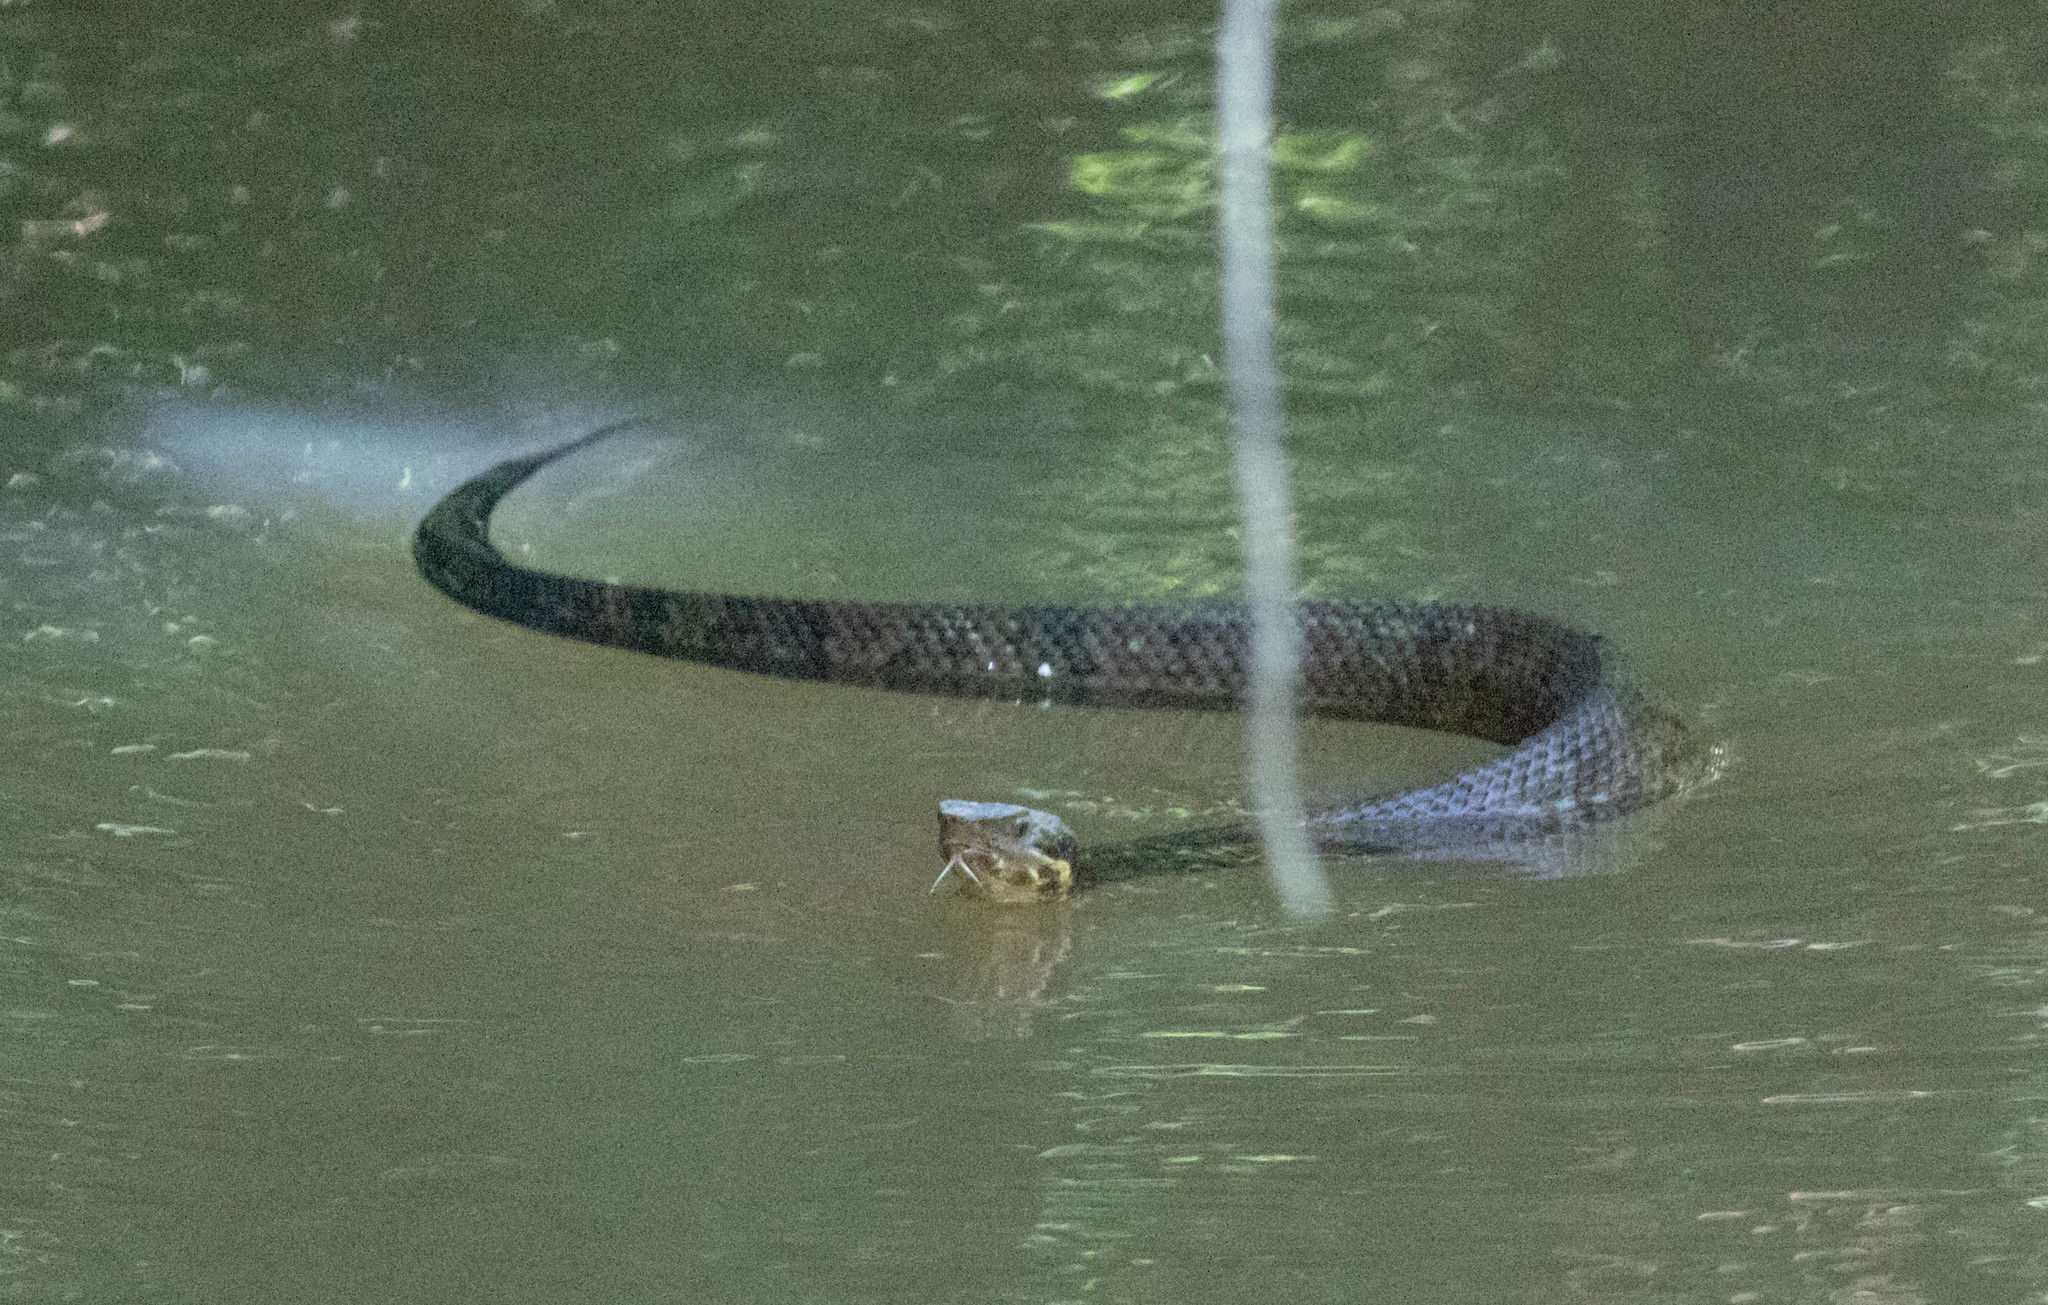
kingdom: Animalia
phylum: Chordata
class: Squamata
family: Viperidae
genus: Agkistrodon
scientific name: Agkistrodon piscivorus
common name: Cottonmouth
